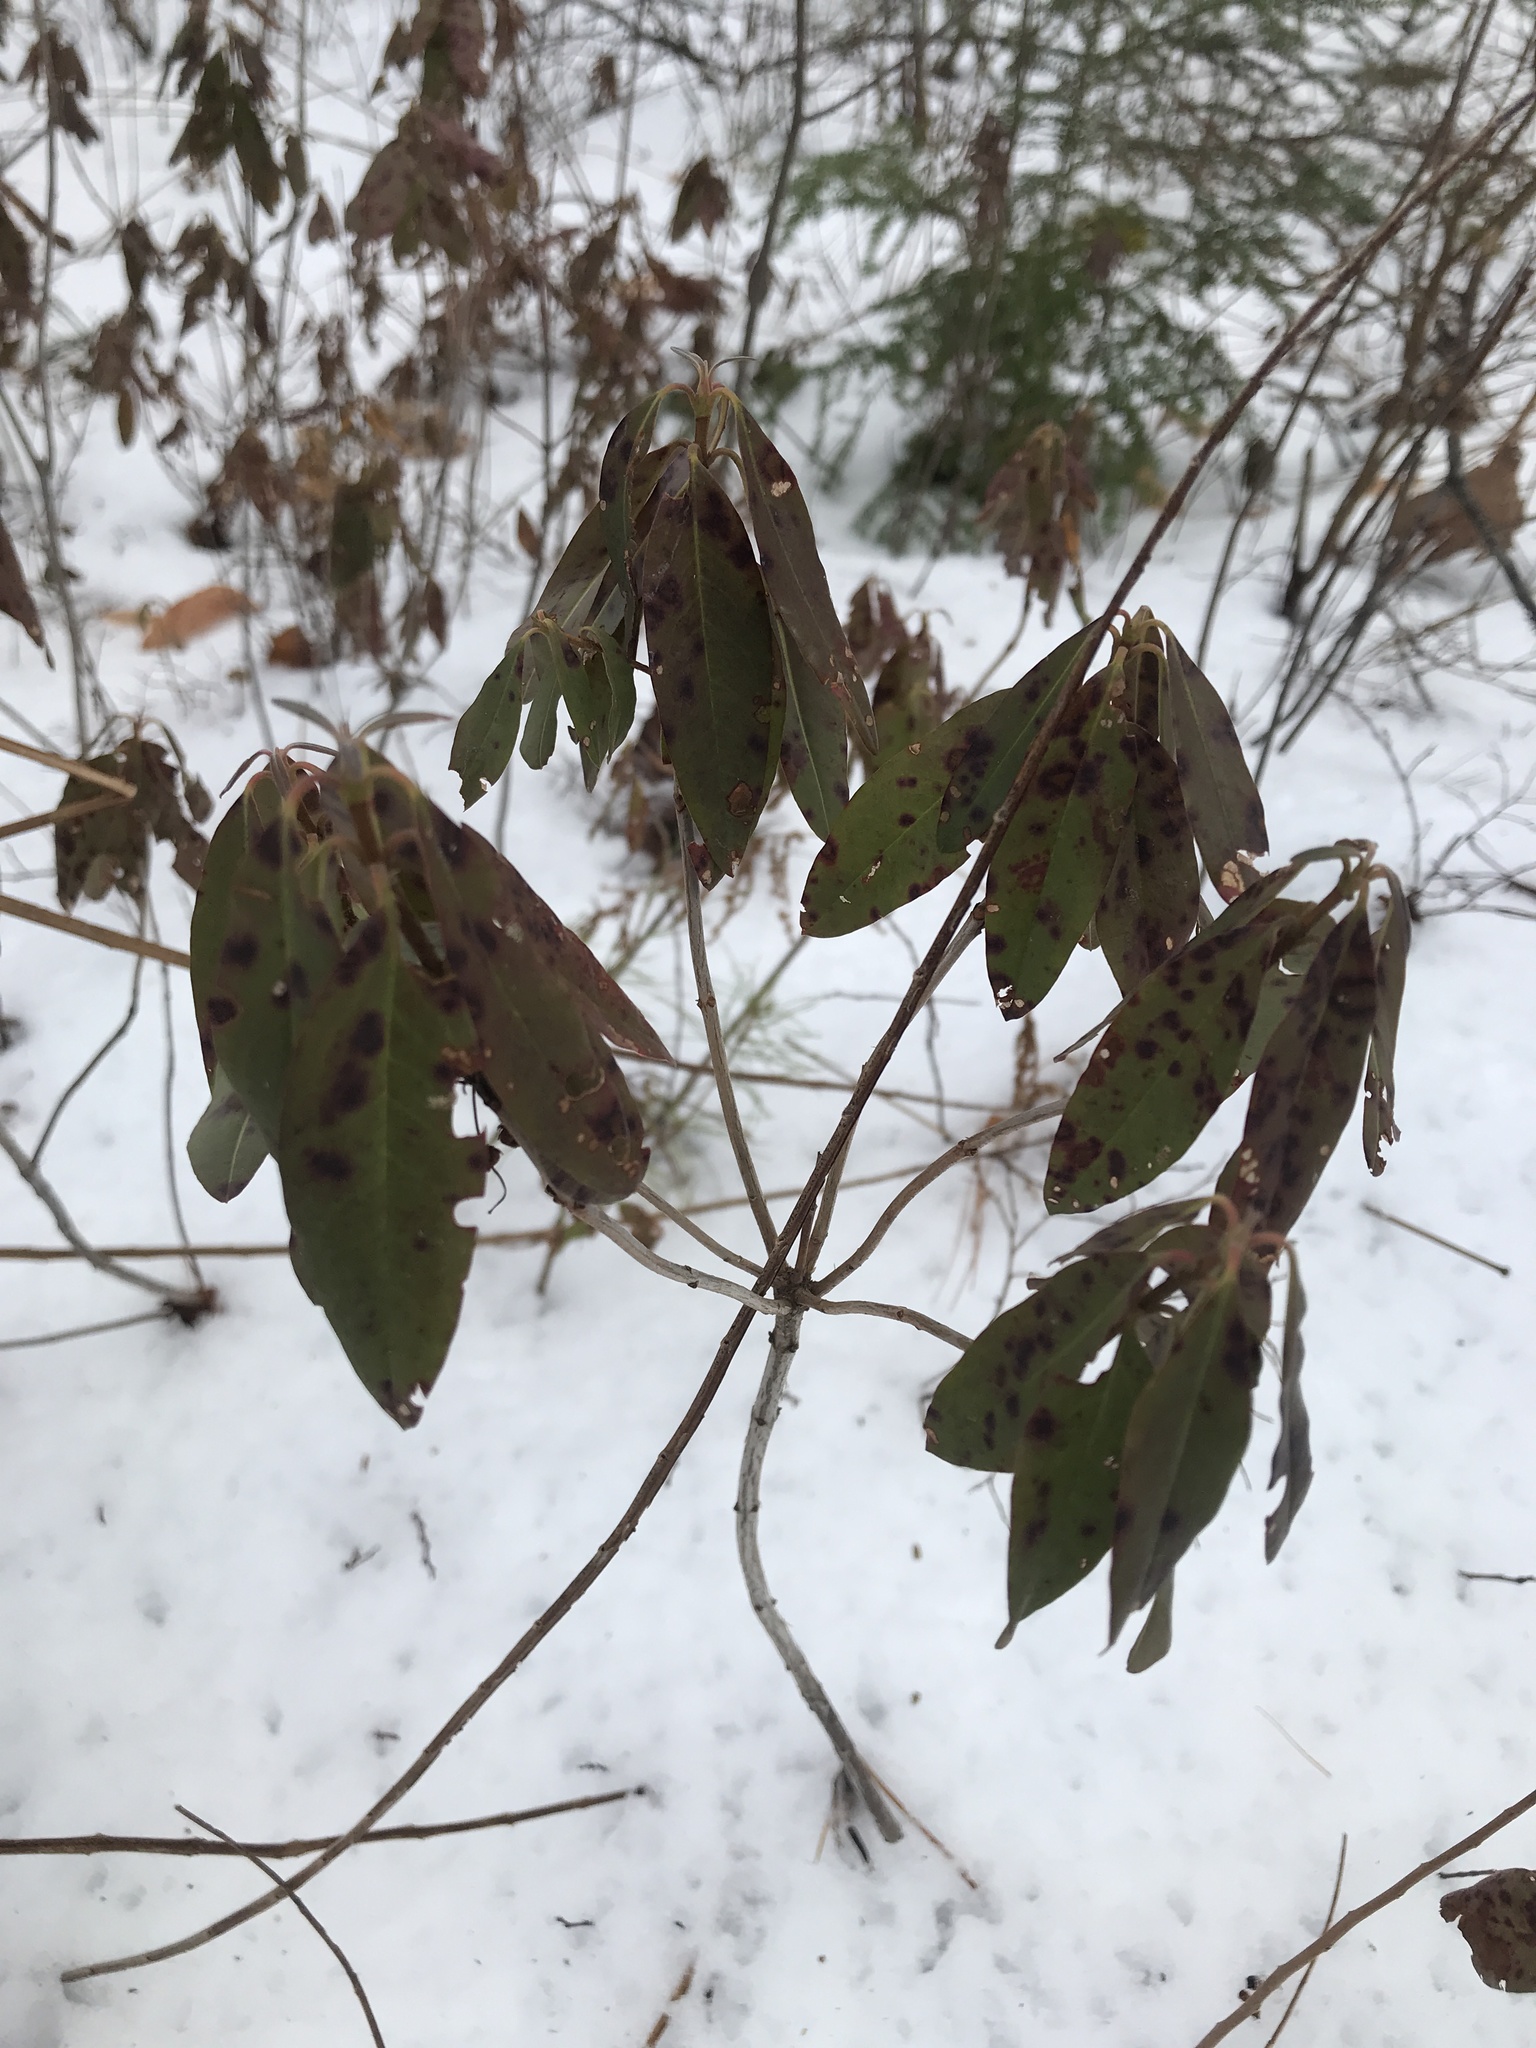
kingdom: Plantae
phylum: Tracheophyta
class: Magnoliopsida
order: Ericales
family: Ericaceae
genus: Kalmia
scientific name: Kalmia angustifolia
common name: Sheep-laurel
